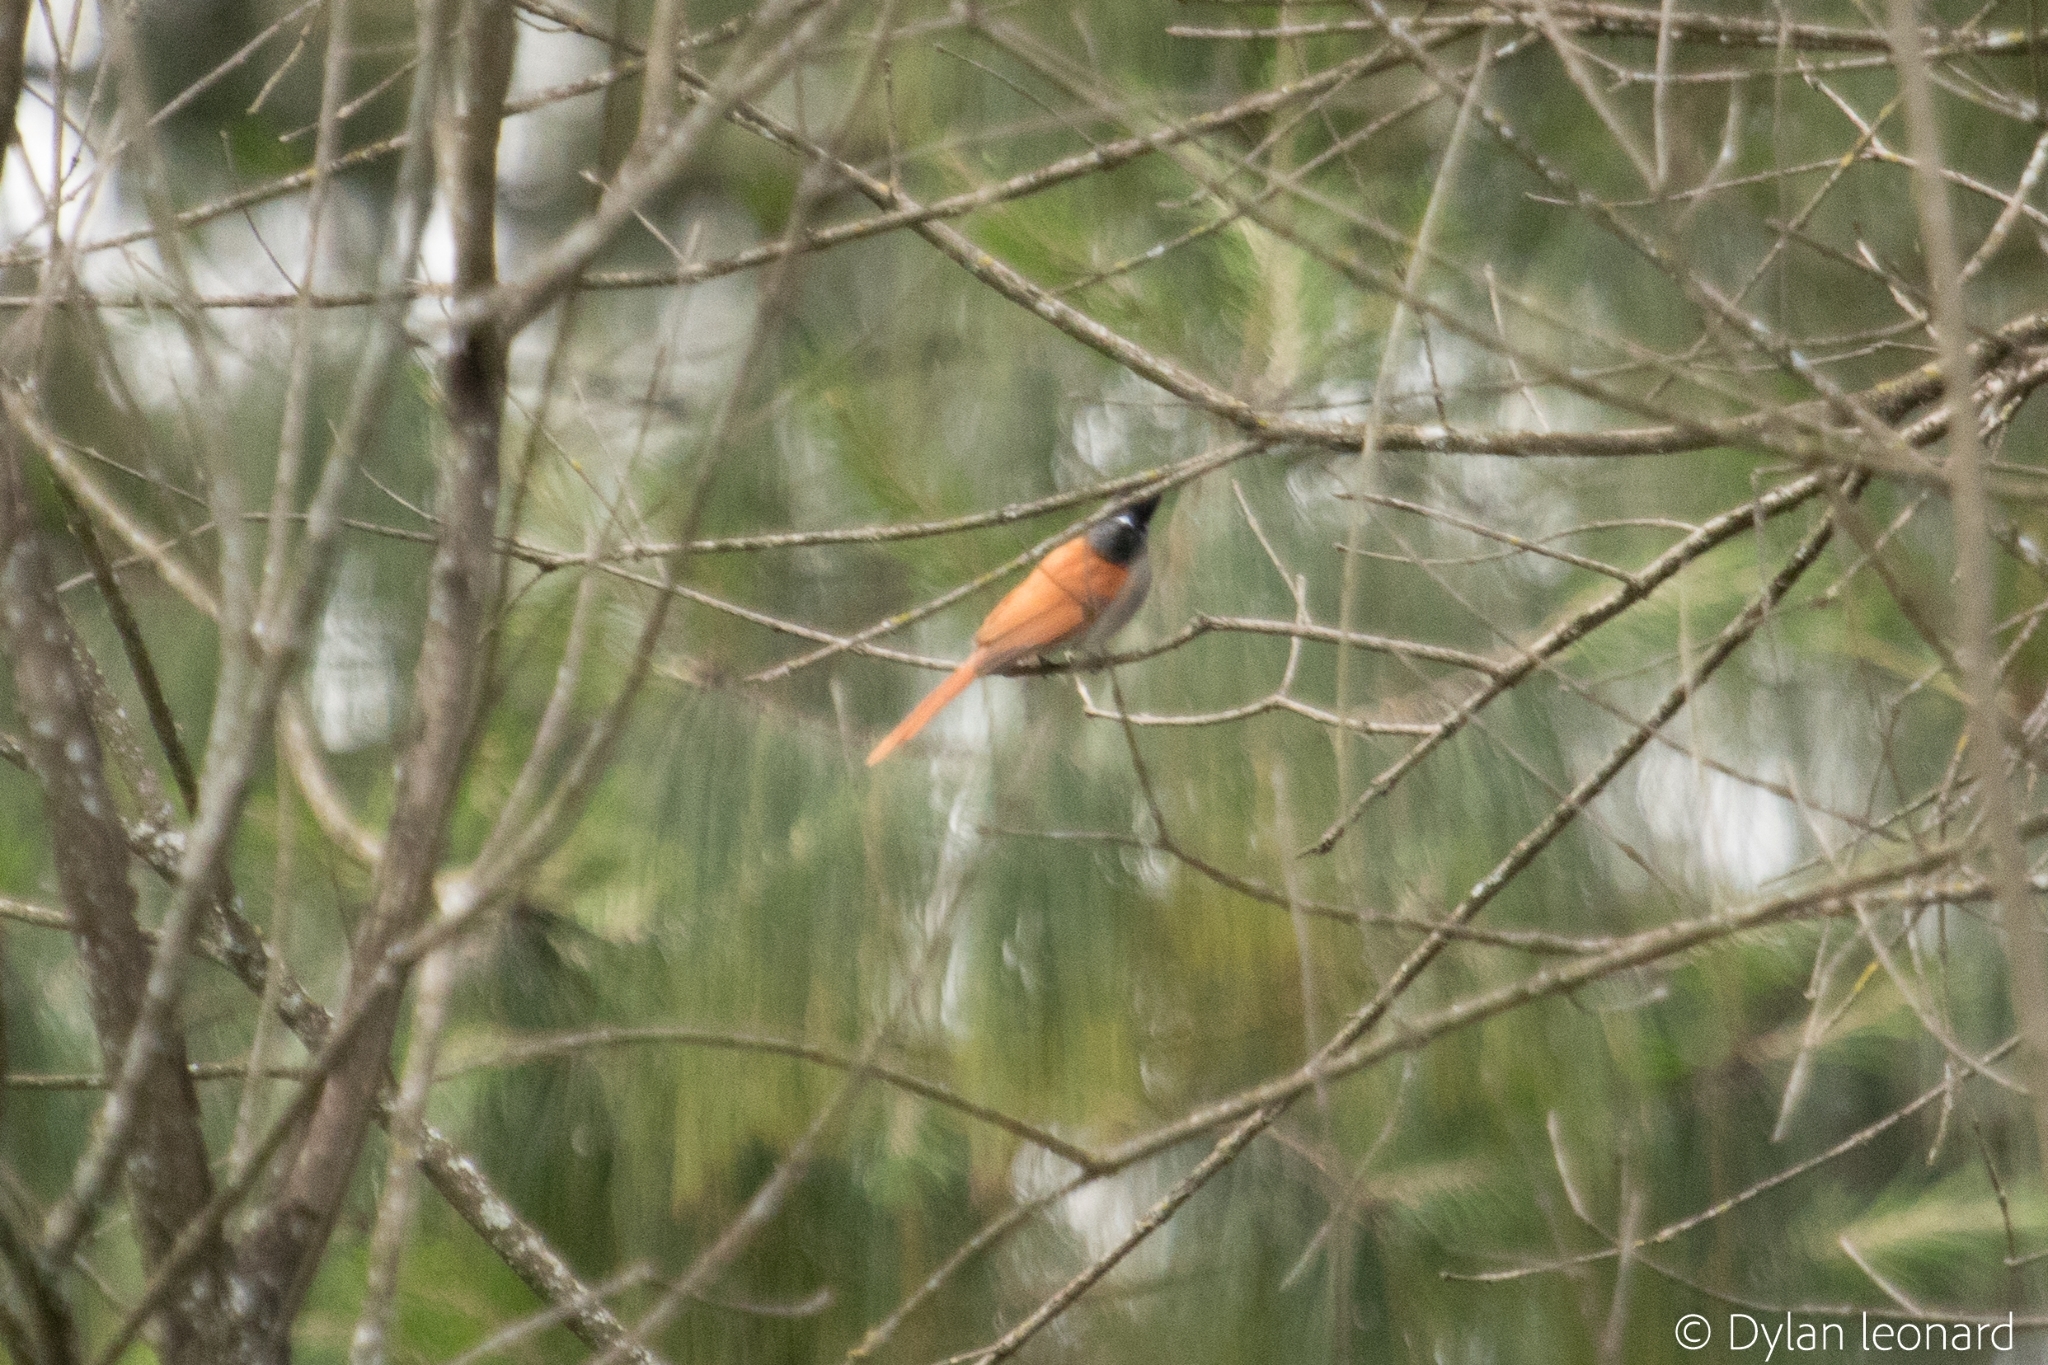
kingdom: Animalia
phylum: Chordata
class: Aves
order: Passeriformes
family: Monarchidae
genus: Terpsiphone
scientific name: Terpsiphone viridis
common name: African paradise flycatcher
